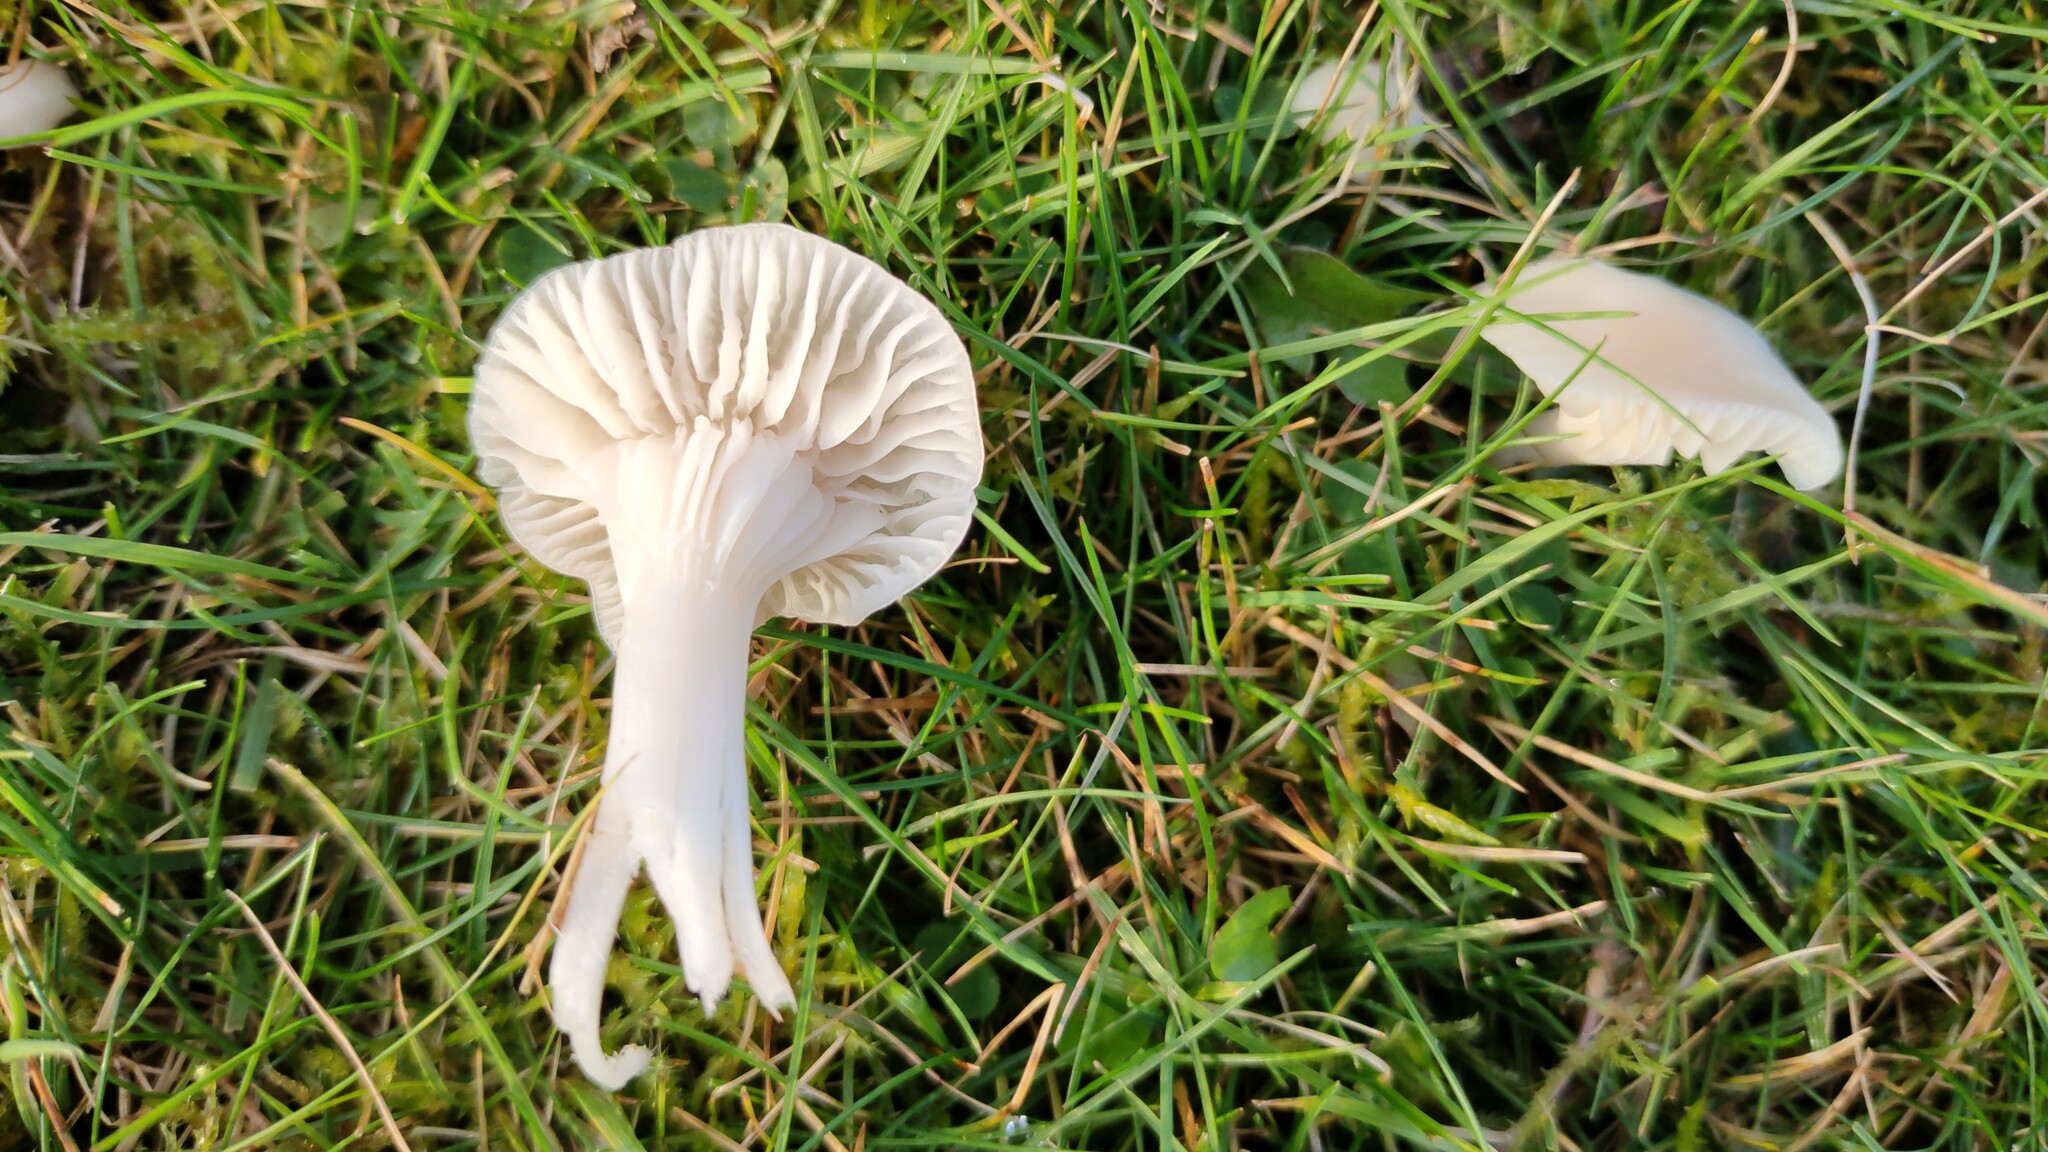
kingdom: Fungi
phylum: Basidiomycota
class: Agaricomycetes
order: Agaricales
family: Hygrophoraceae
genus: Cuphophyllus
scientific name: Cuphophyllus virgineus
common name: Snowy waxcap
